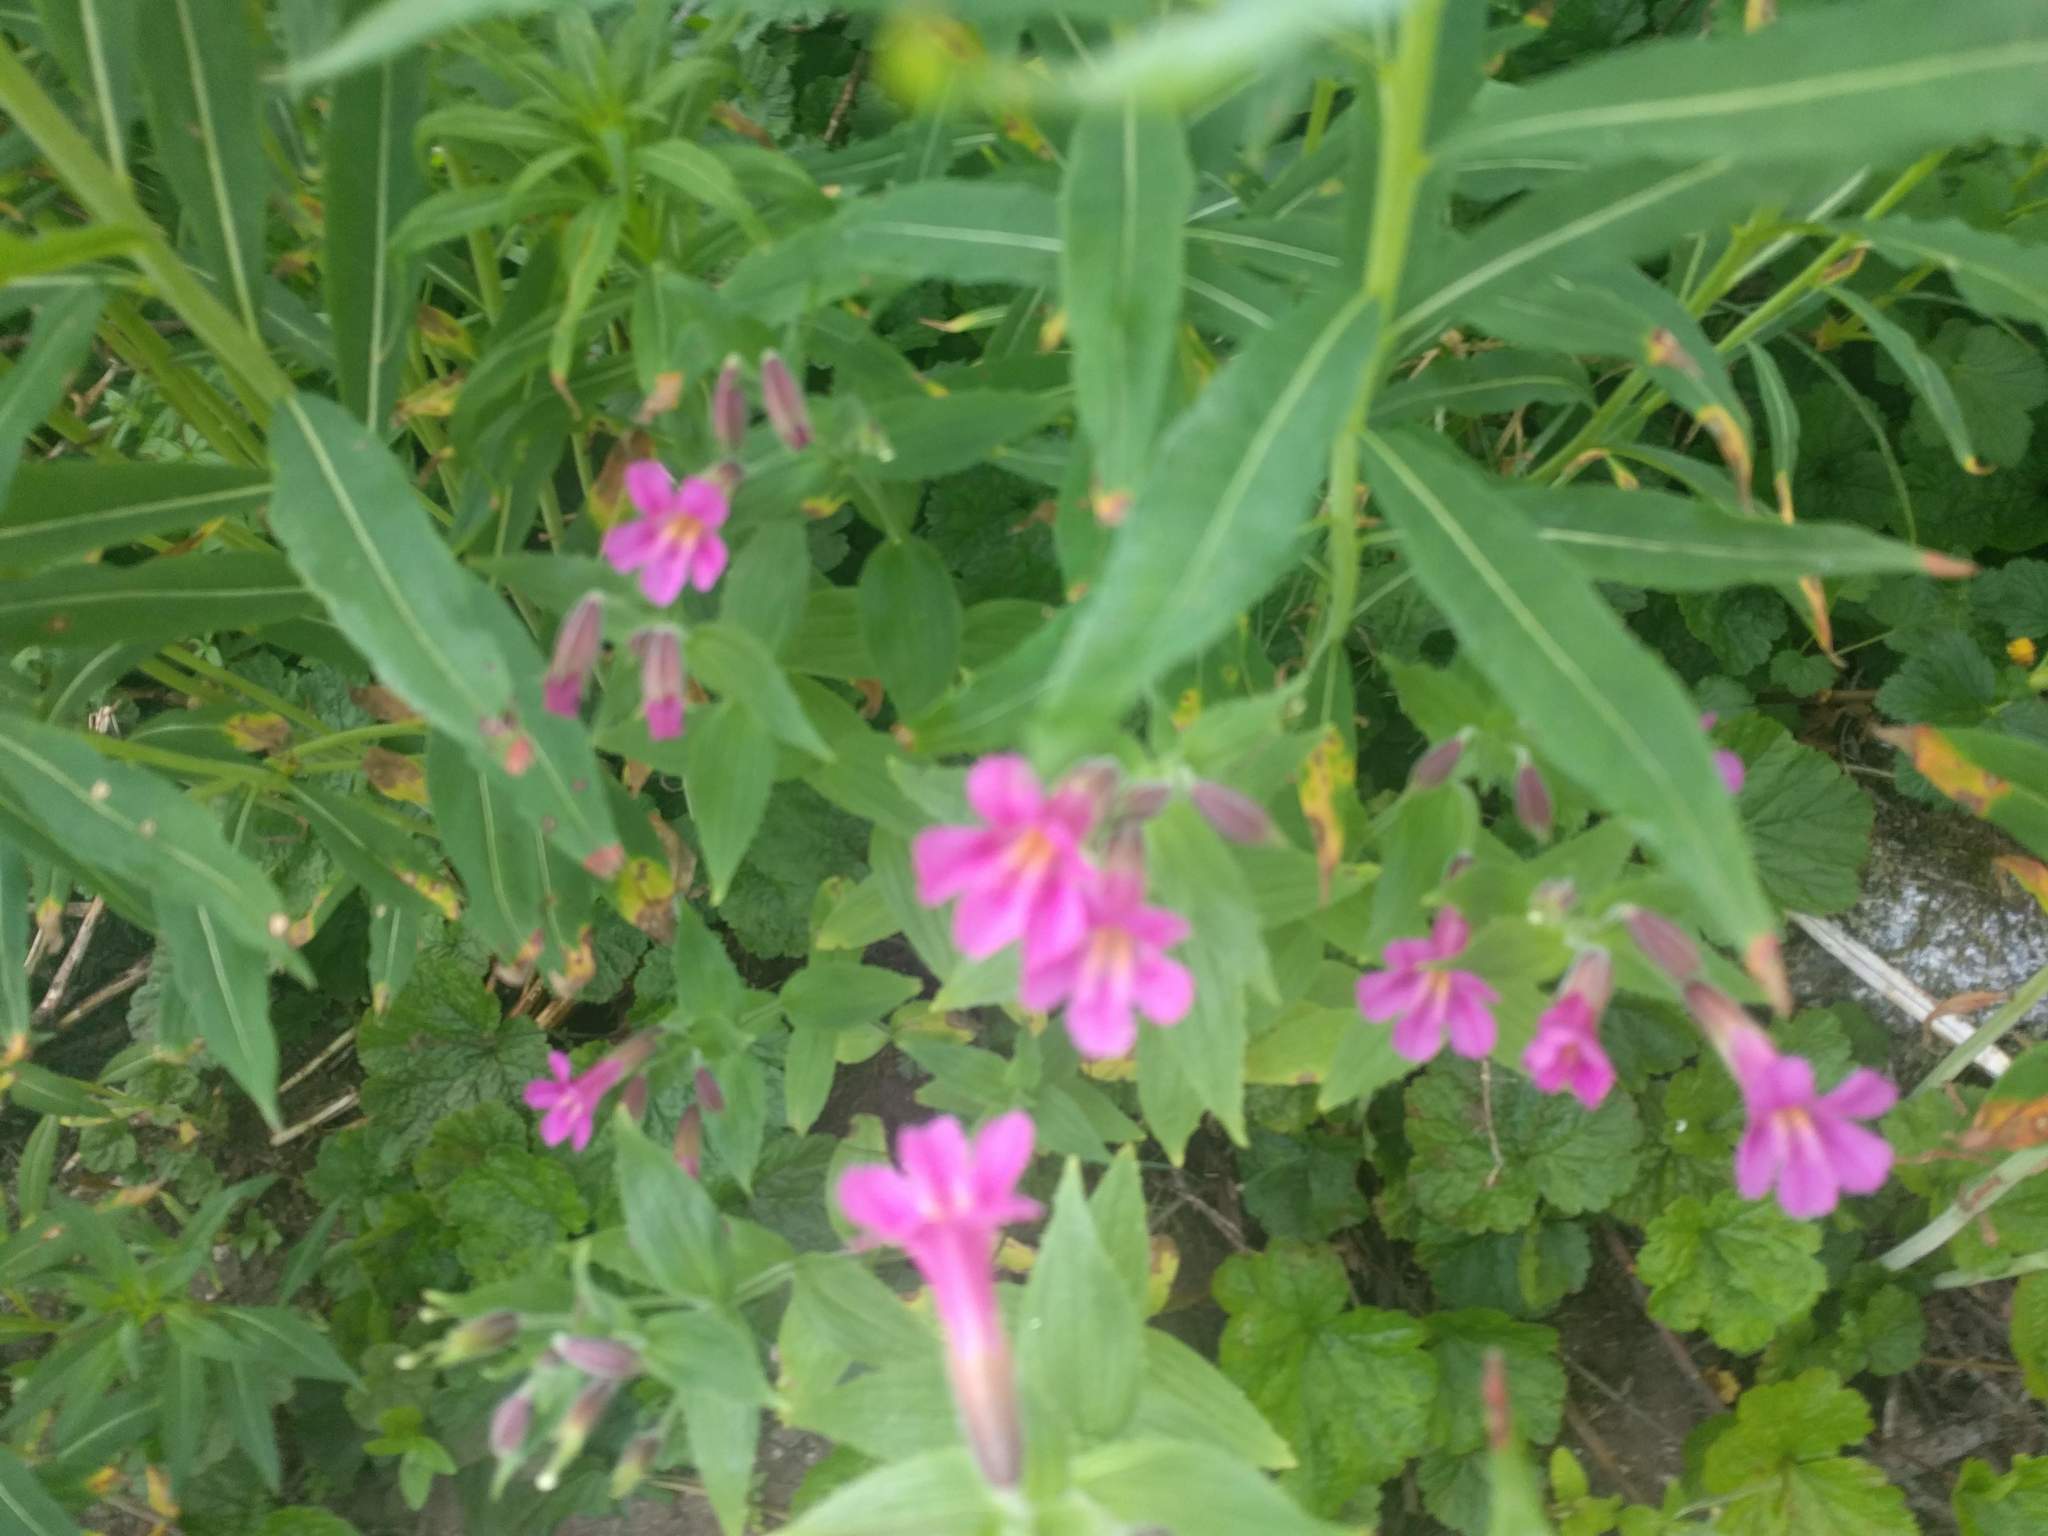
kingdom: Plantae
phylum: Tracheophyta
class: Magnoliopsida
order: Lamiales
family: Phrymaceae
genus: Erythranthe
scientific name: Erythranthe lewisii
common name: Lewis's monkey-flower
